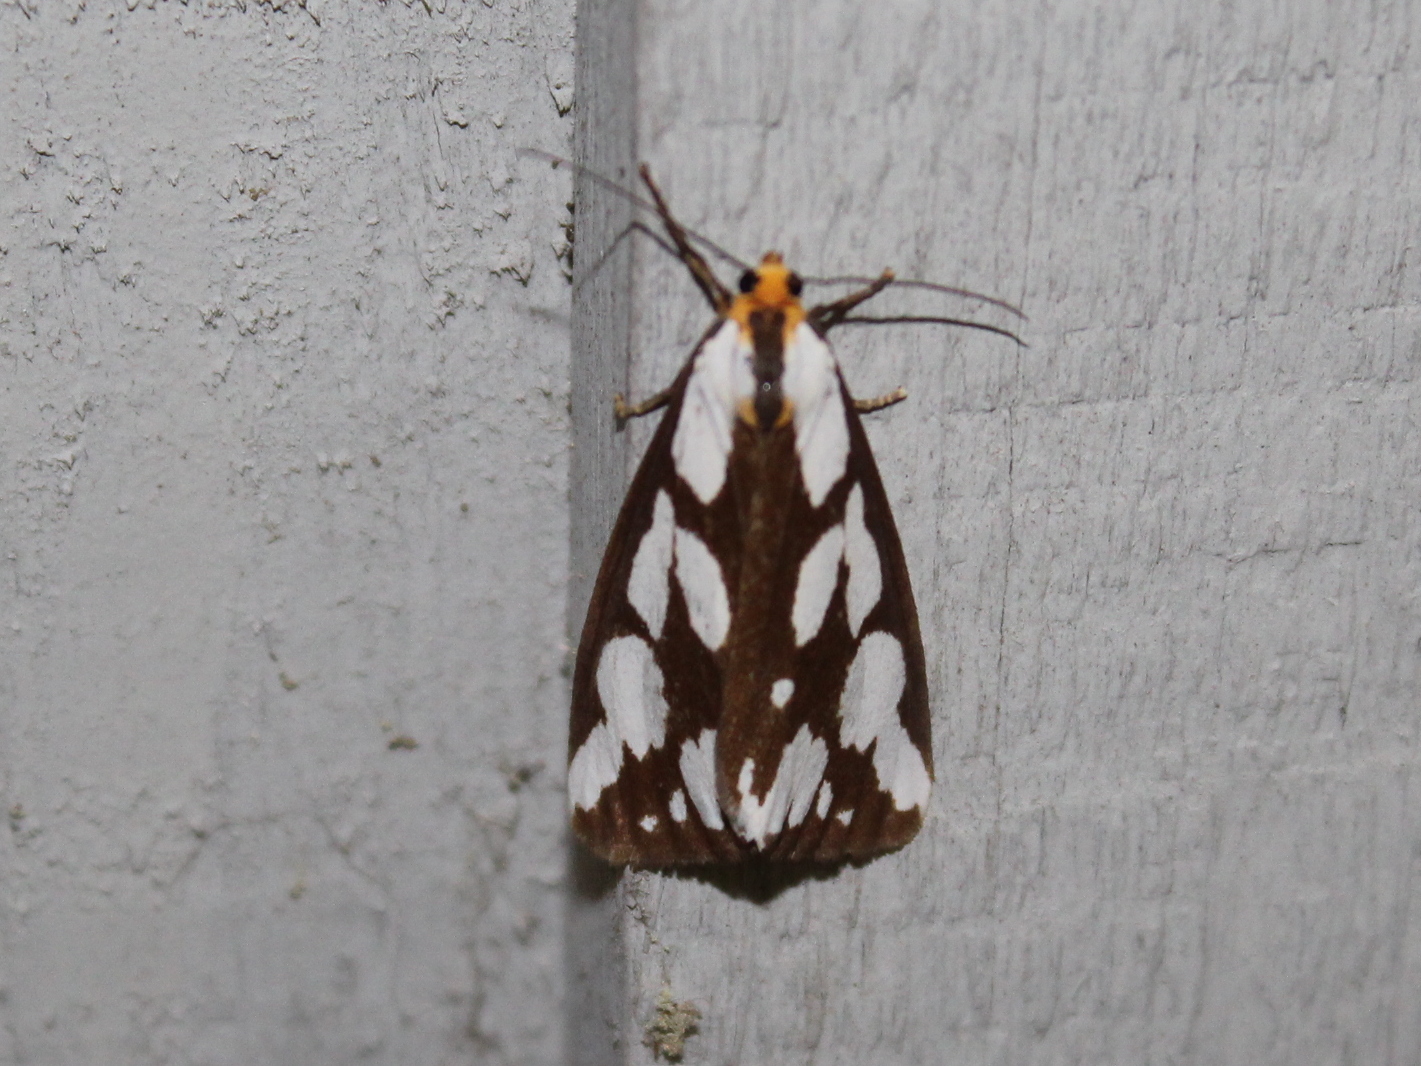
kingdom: Animalia
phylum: Arthropoda
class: Insecta
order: Lepidoptera
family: Erebidae
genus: Haploa
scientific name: Haploa confusa
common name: Confused haploa moth
